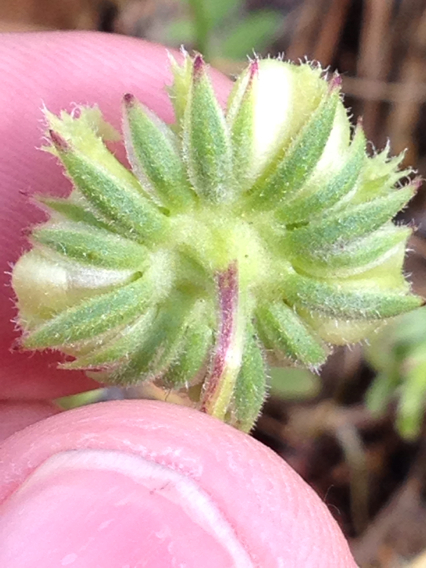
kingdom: Plantae
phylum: Tracheophyta
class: Magnoliopsida
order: Asterales
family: Asteraceae
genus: Calendula
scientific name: Calendula arvensis
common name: Field marigold
